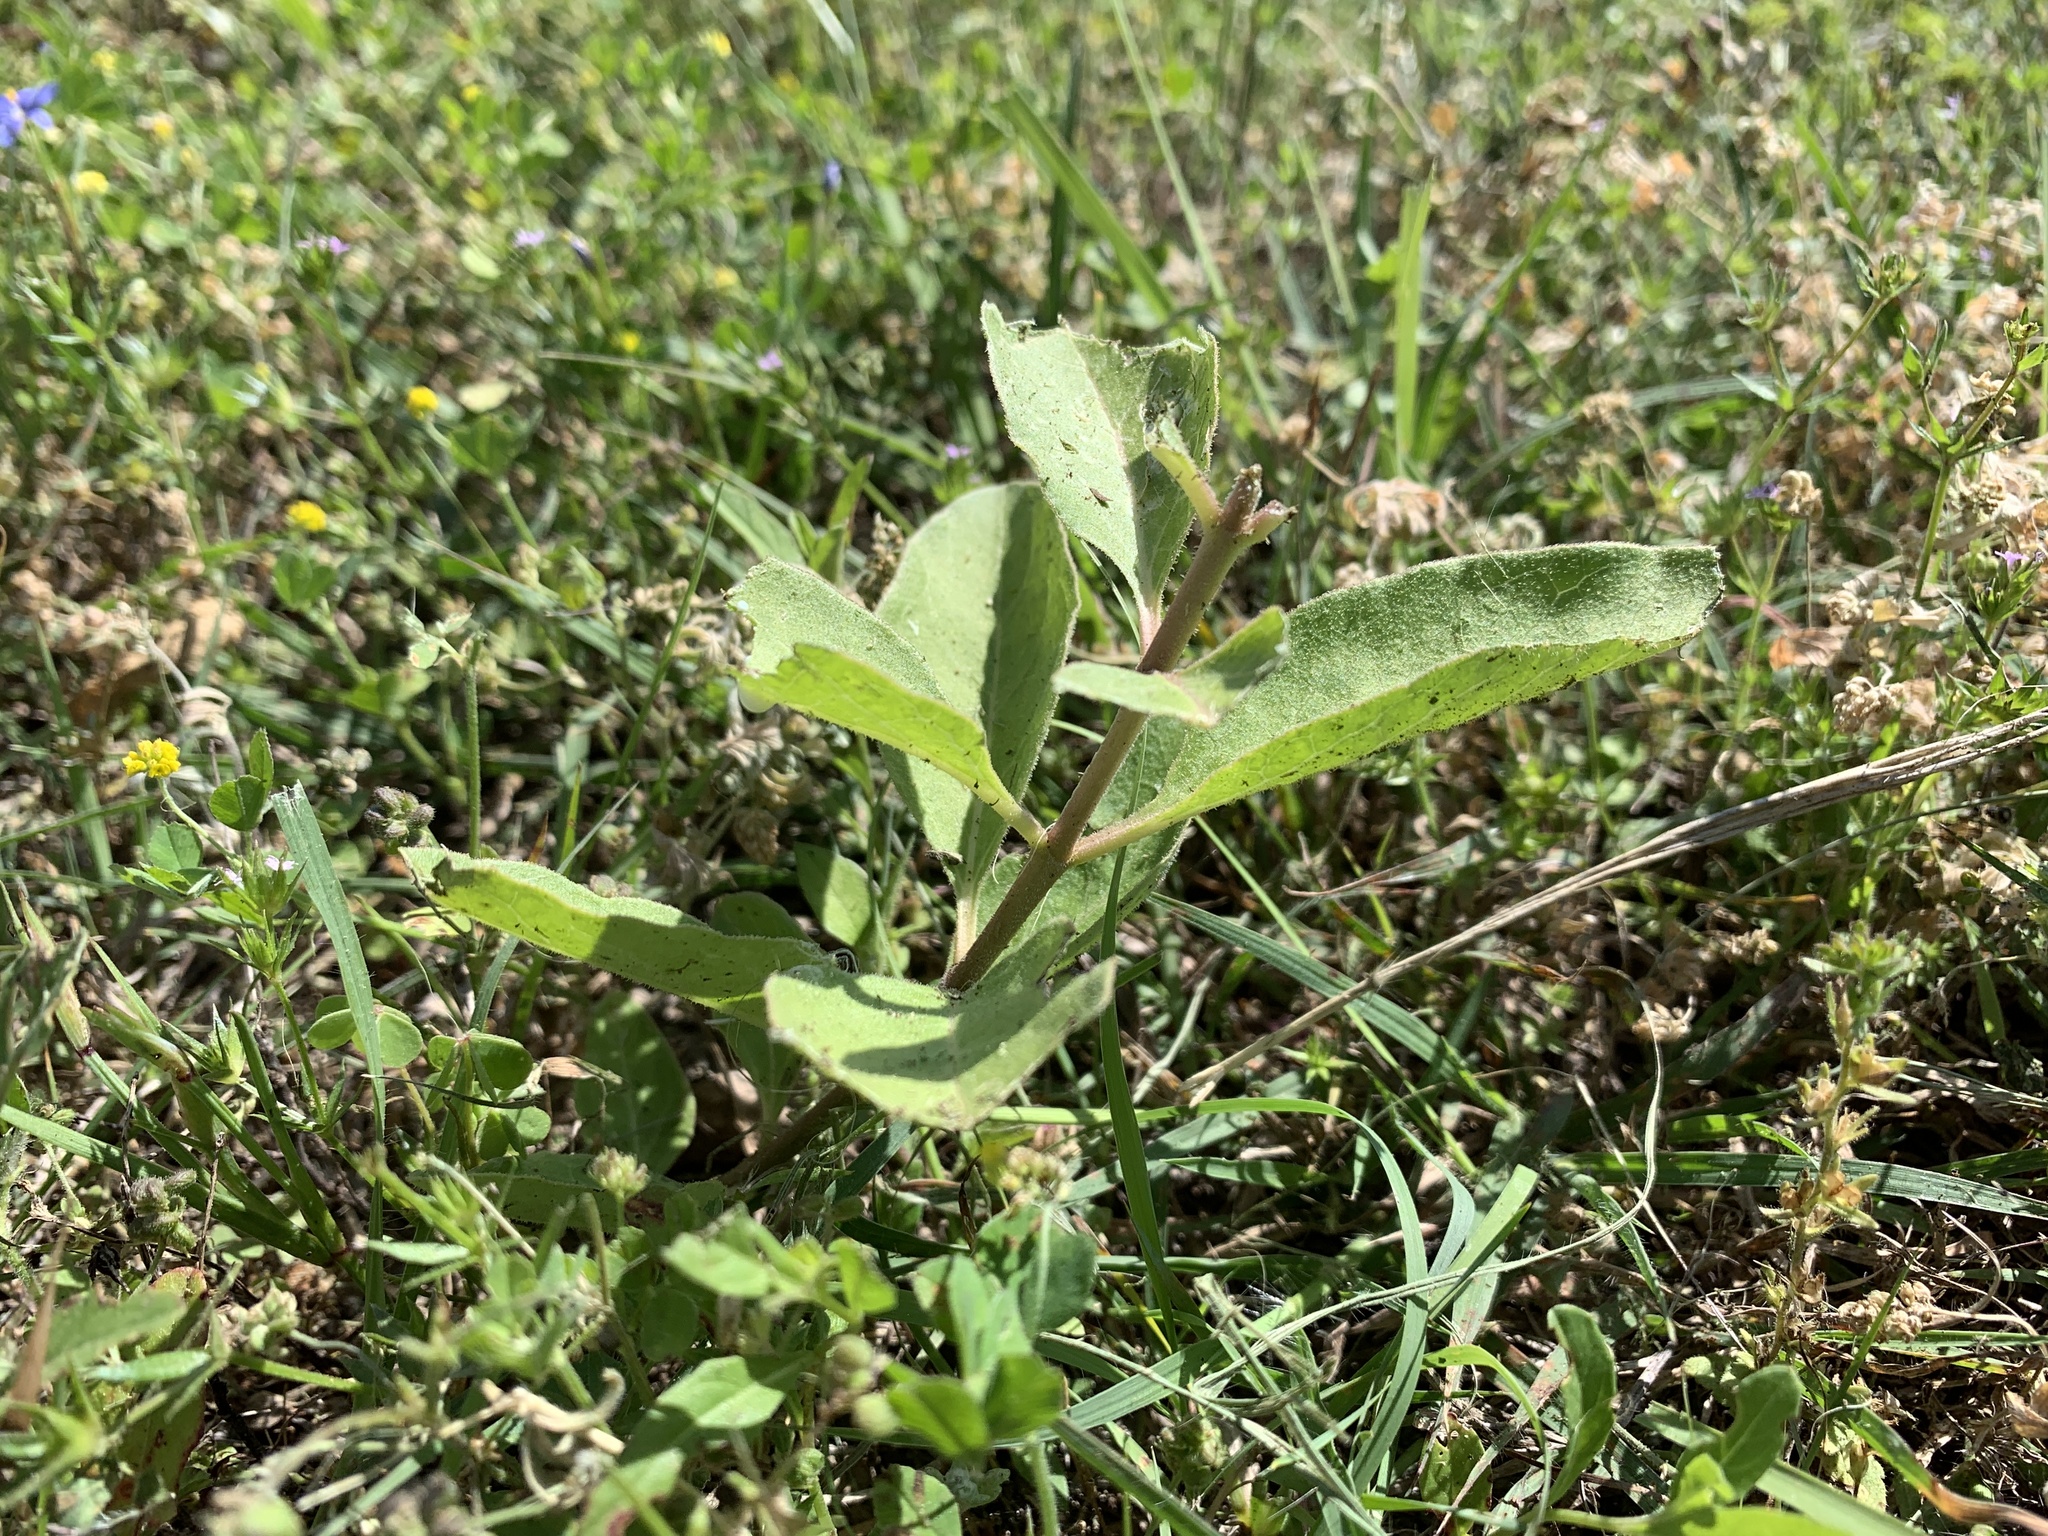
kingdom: Plantae
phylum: Tracheophyta
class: Magnoliopsida
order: Gentianales
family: Apocynaceae
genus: Asclepias
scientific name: Asclepias oenotheroides
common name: Zizotes milkweed
